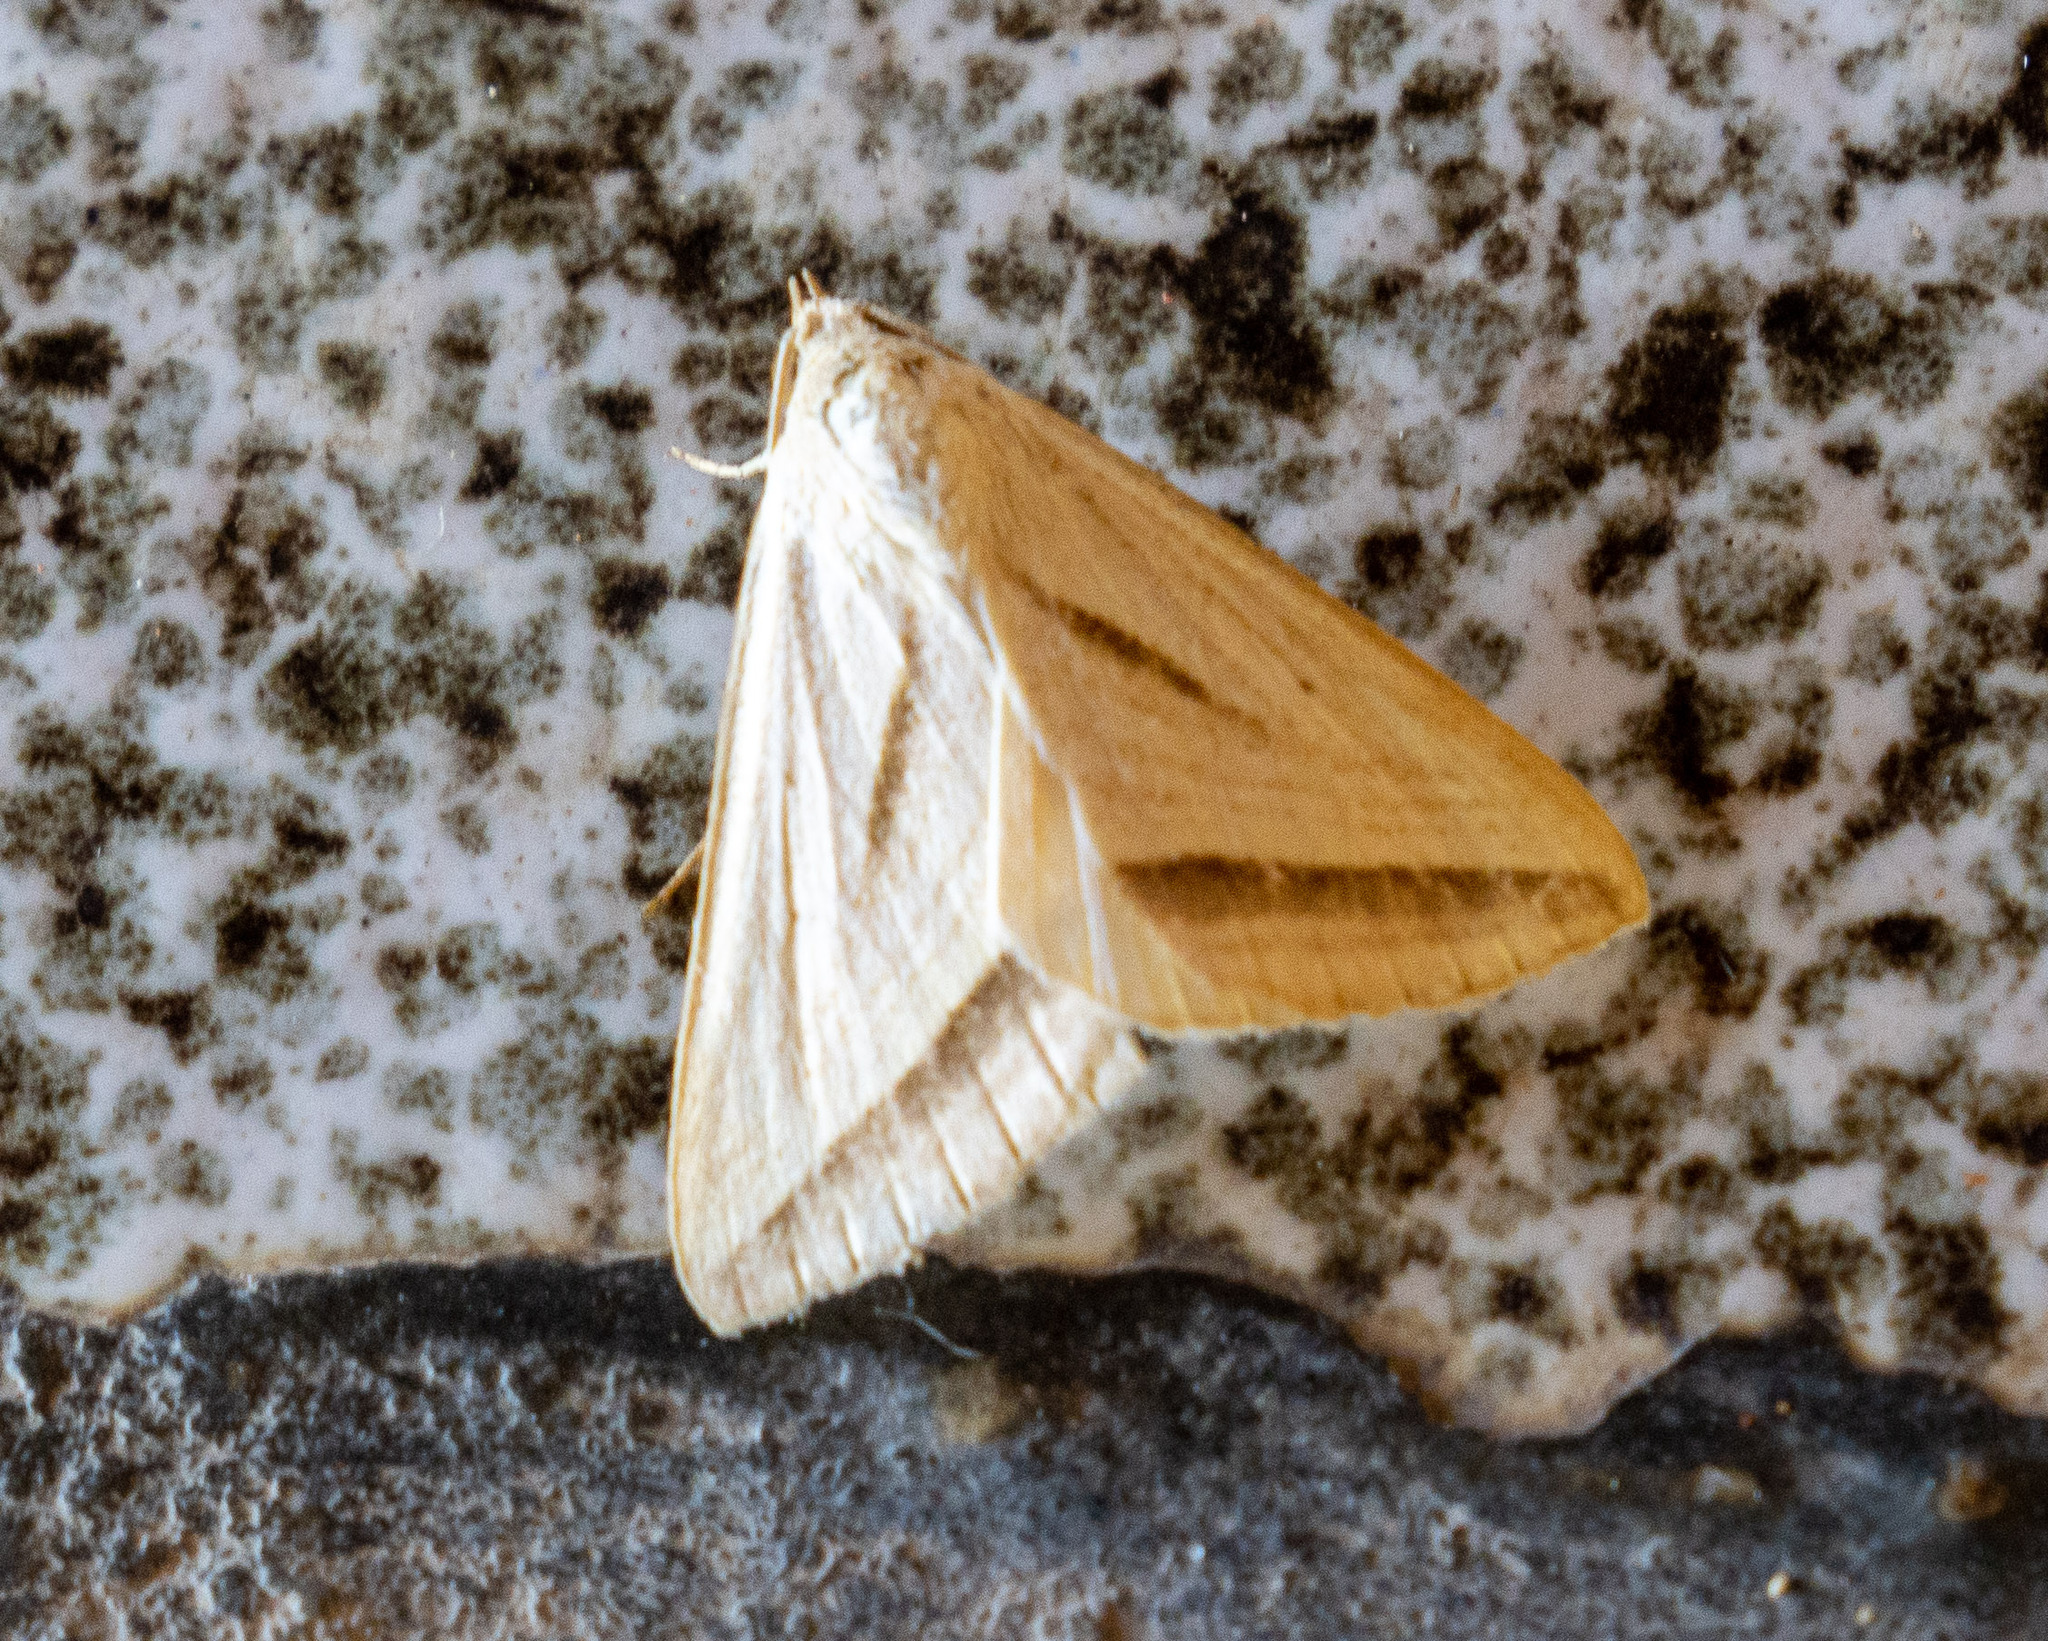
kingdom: Animalia
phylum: Arthropoda
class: Insecta
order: Lepidoptera
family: Erebidae
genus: Ptichodis
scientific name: Ptichodis dorsalis
